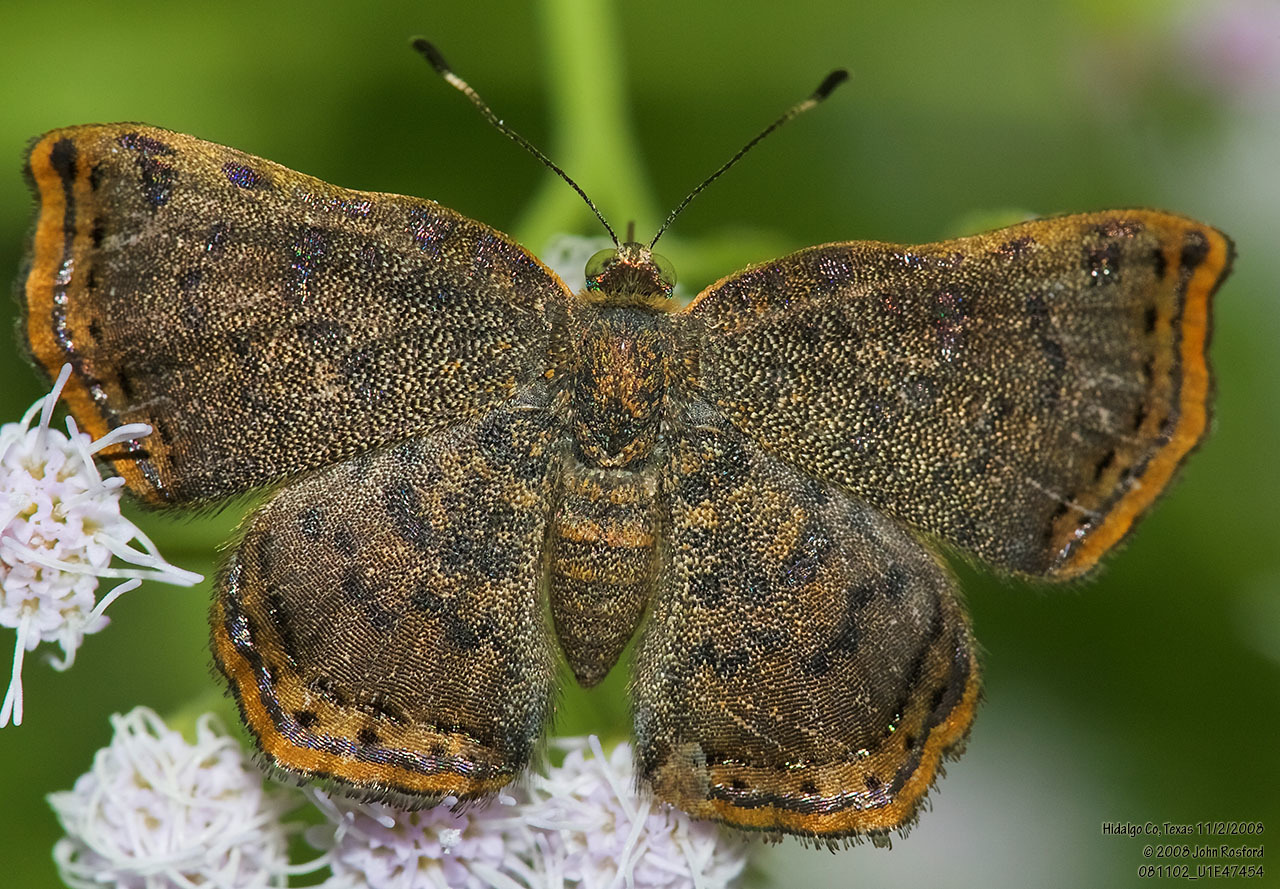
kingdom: Animalia
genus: Caria
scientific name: Caria ino
